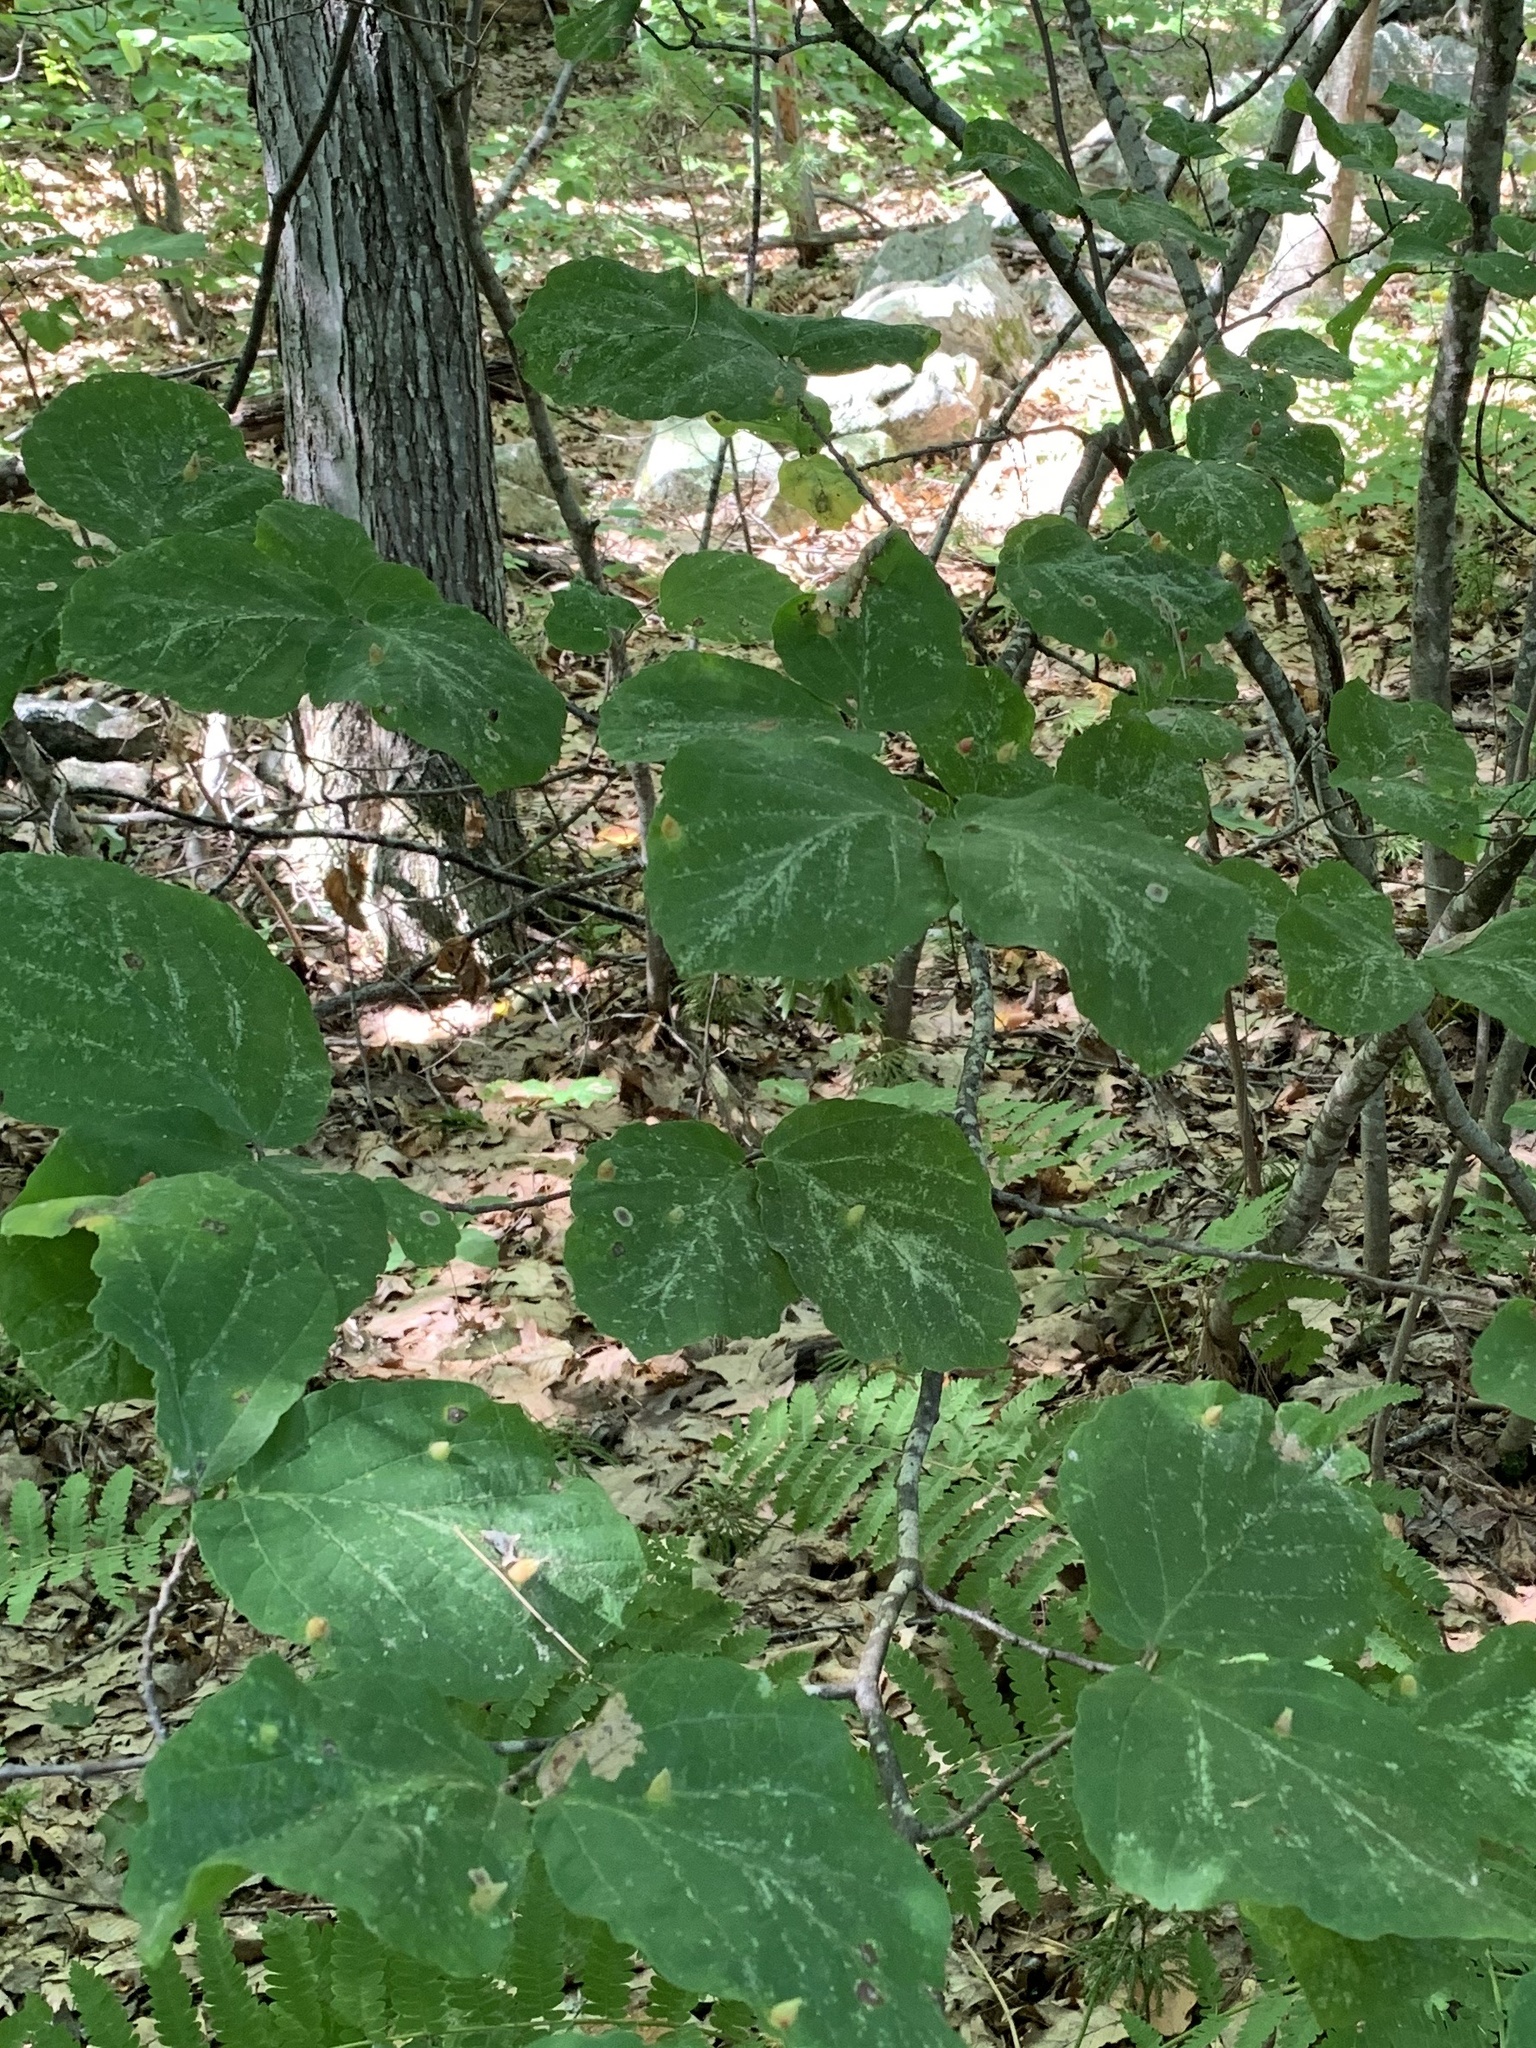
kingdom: Plantae
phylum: Tracheophyta
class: Magnoliopsida
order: Saxifragales
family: Hamamelidaceae
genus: Hamamelis
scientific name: Hamamelis virginiana
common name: Witch-hazel
